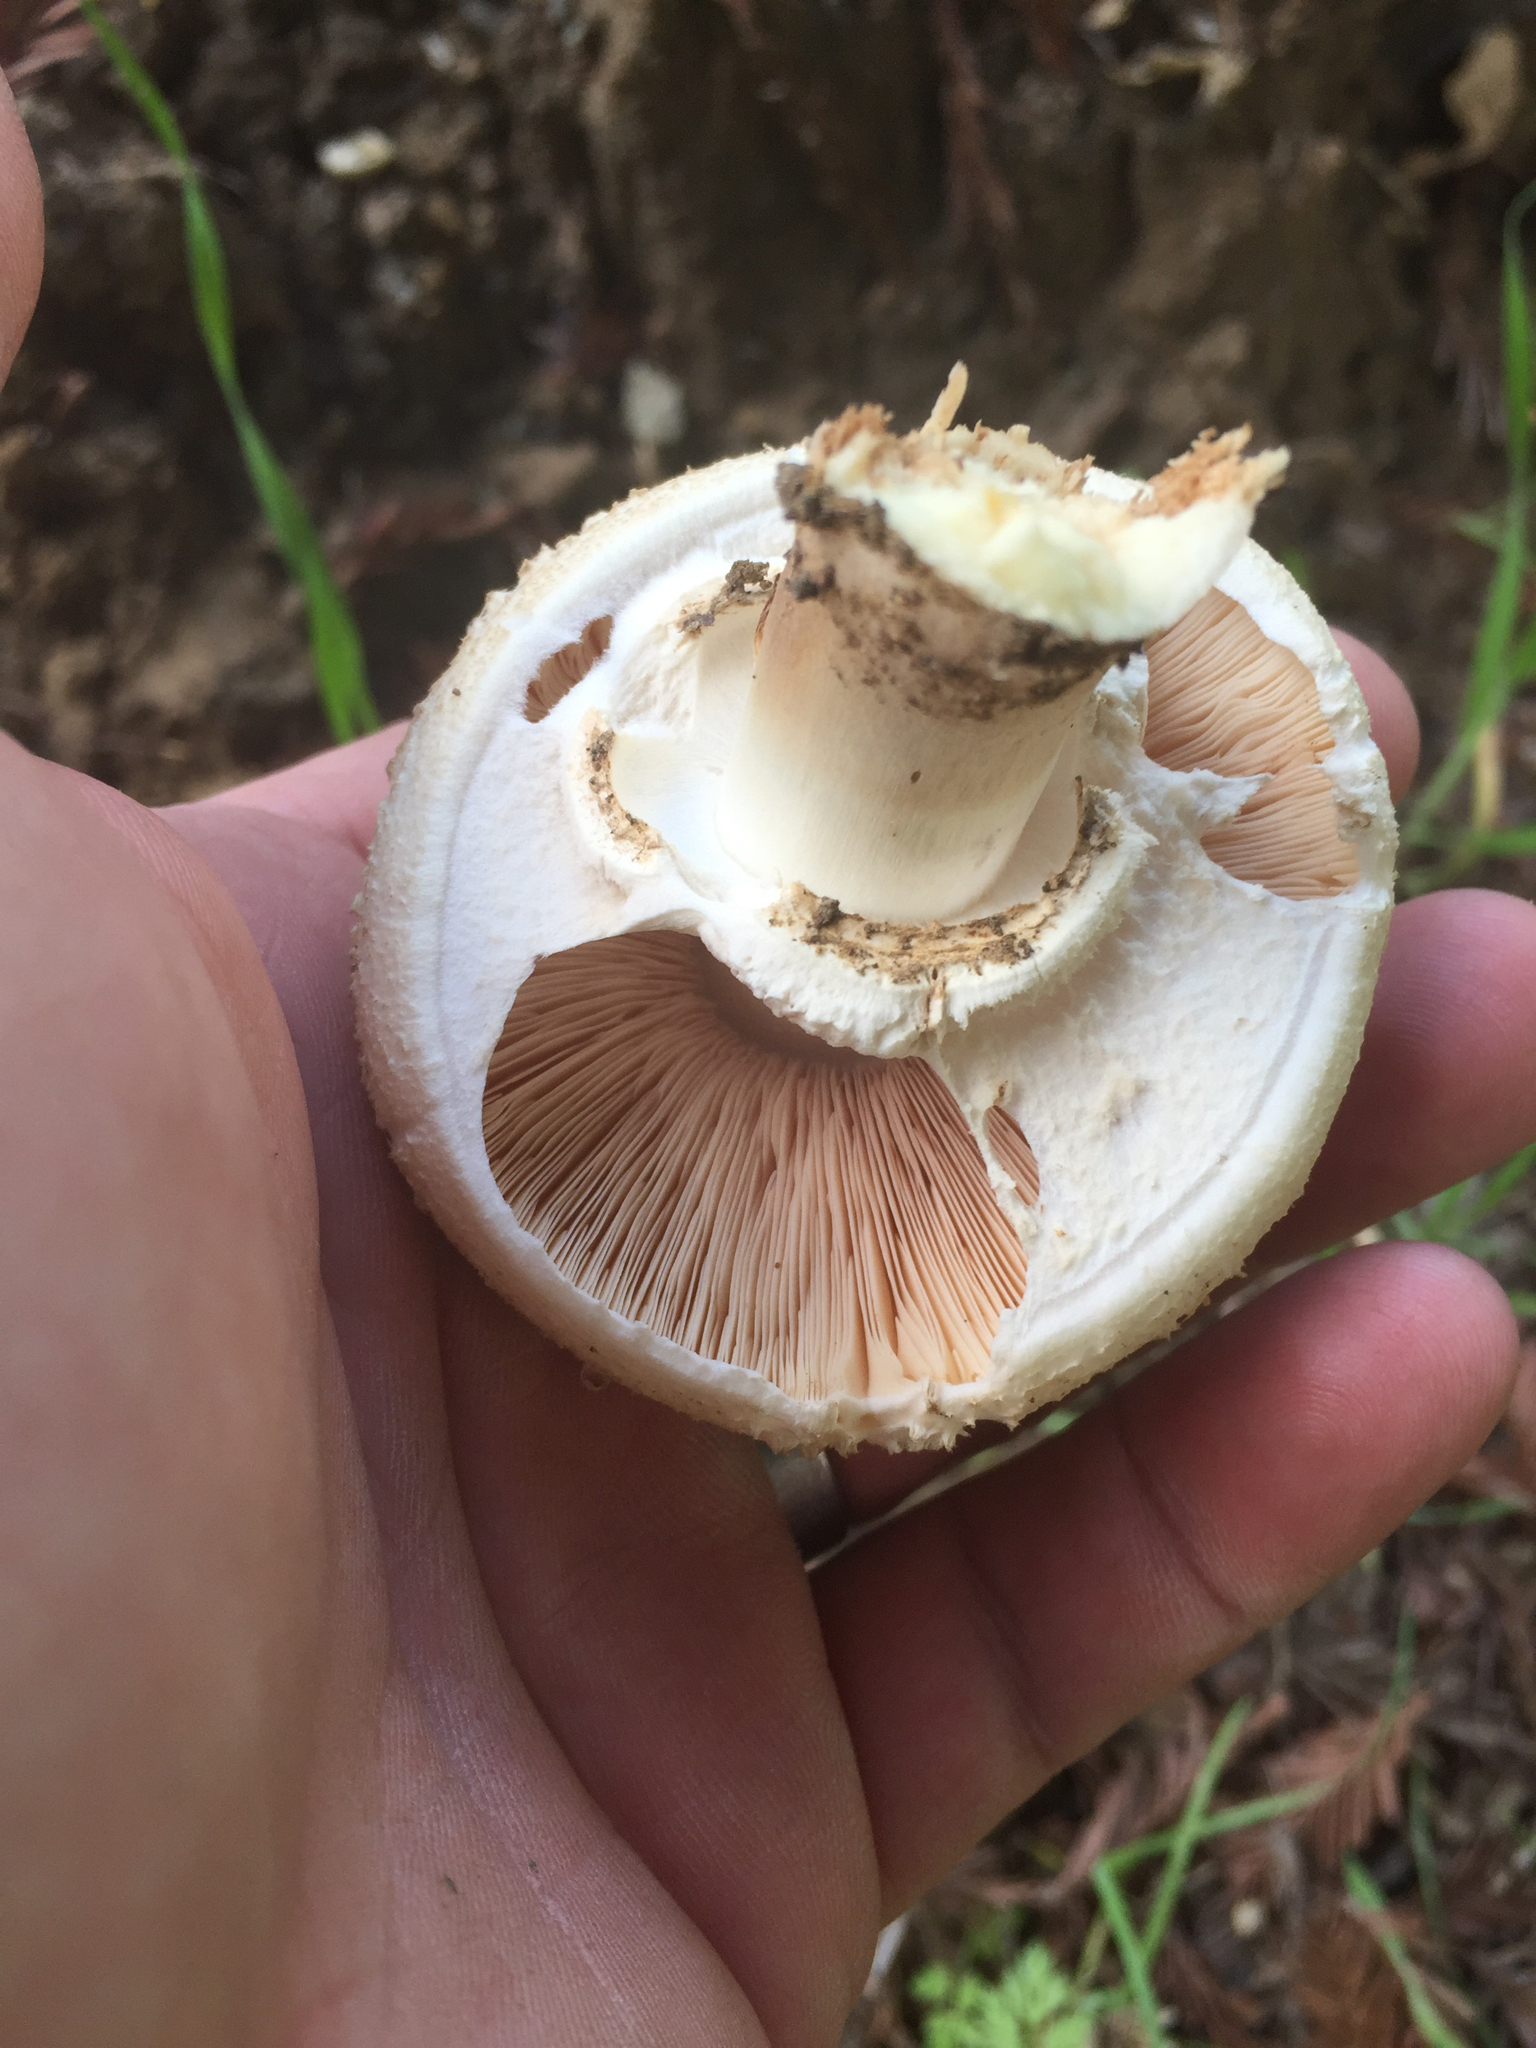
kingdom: Fungi
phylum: Basidiomycota
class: Agaricomycetes
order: Agaricales
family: Agaricaceae
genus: Agaricus
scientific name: Agaricus xanthodermus
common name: Yellow stainer
